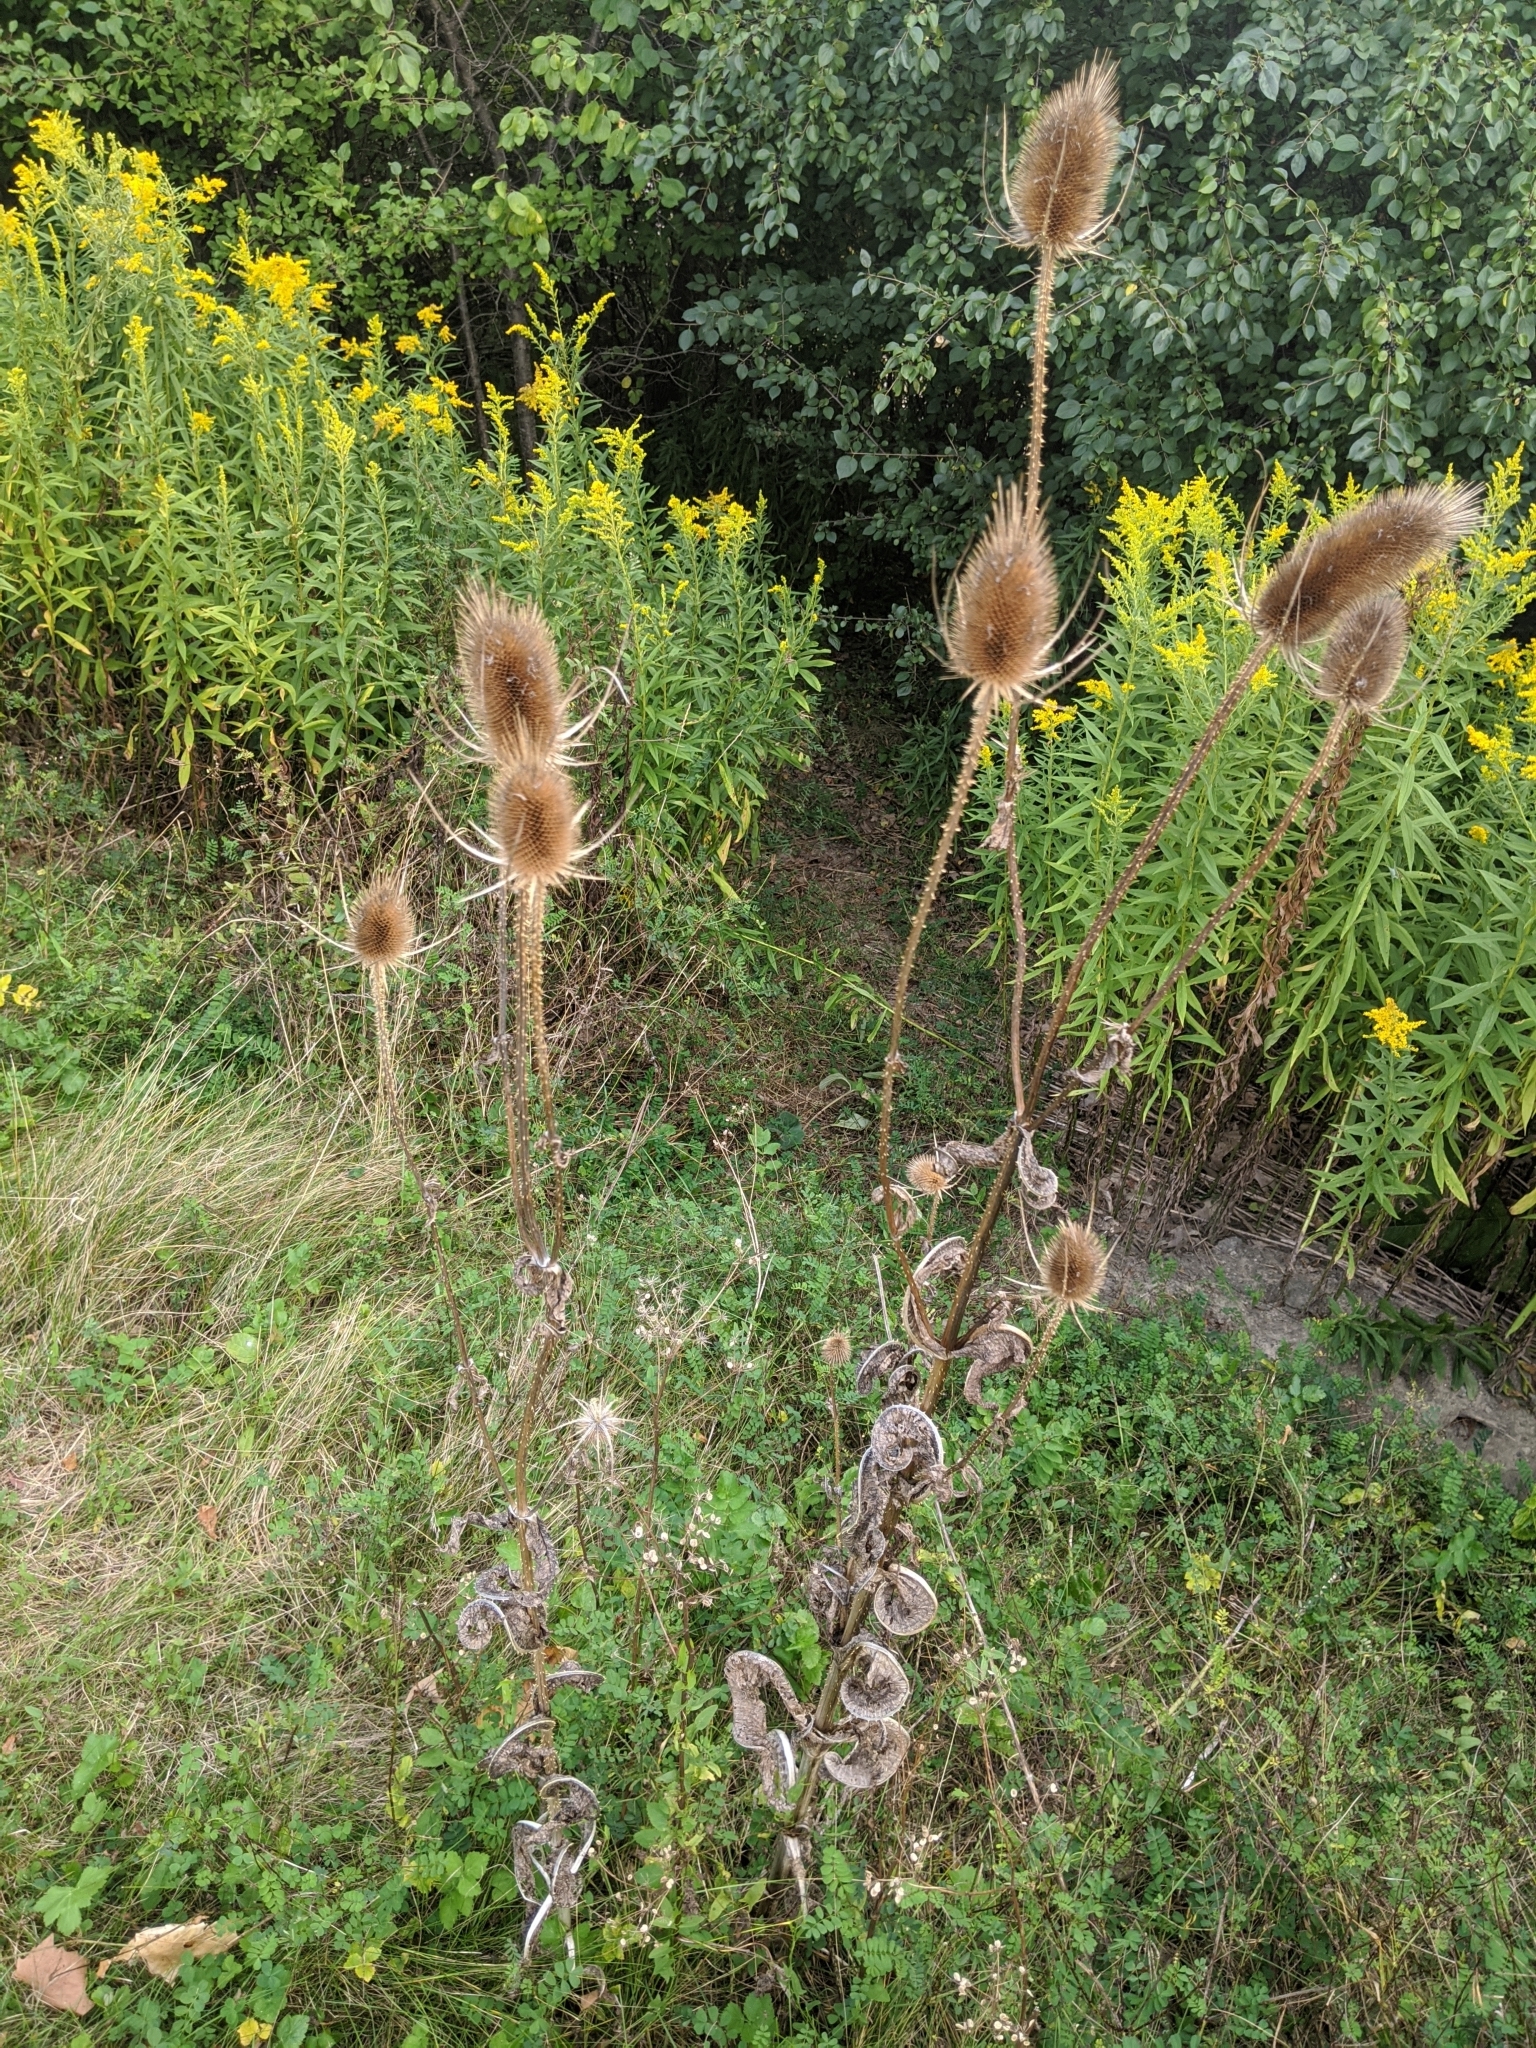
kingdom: Plantae
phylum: Tracheophyta
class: Magnoliopsida
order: Dipsacales
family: Caprifoliaceae
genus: Dipsacus
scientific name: Dipsacus fullonum
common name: Teasel
